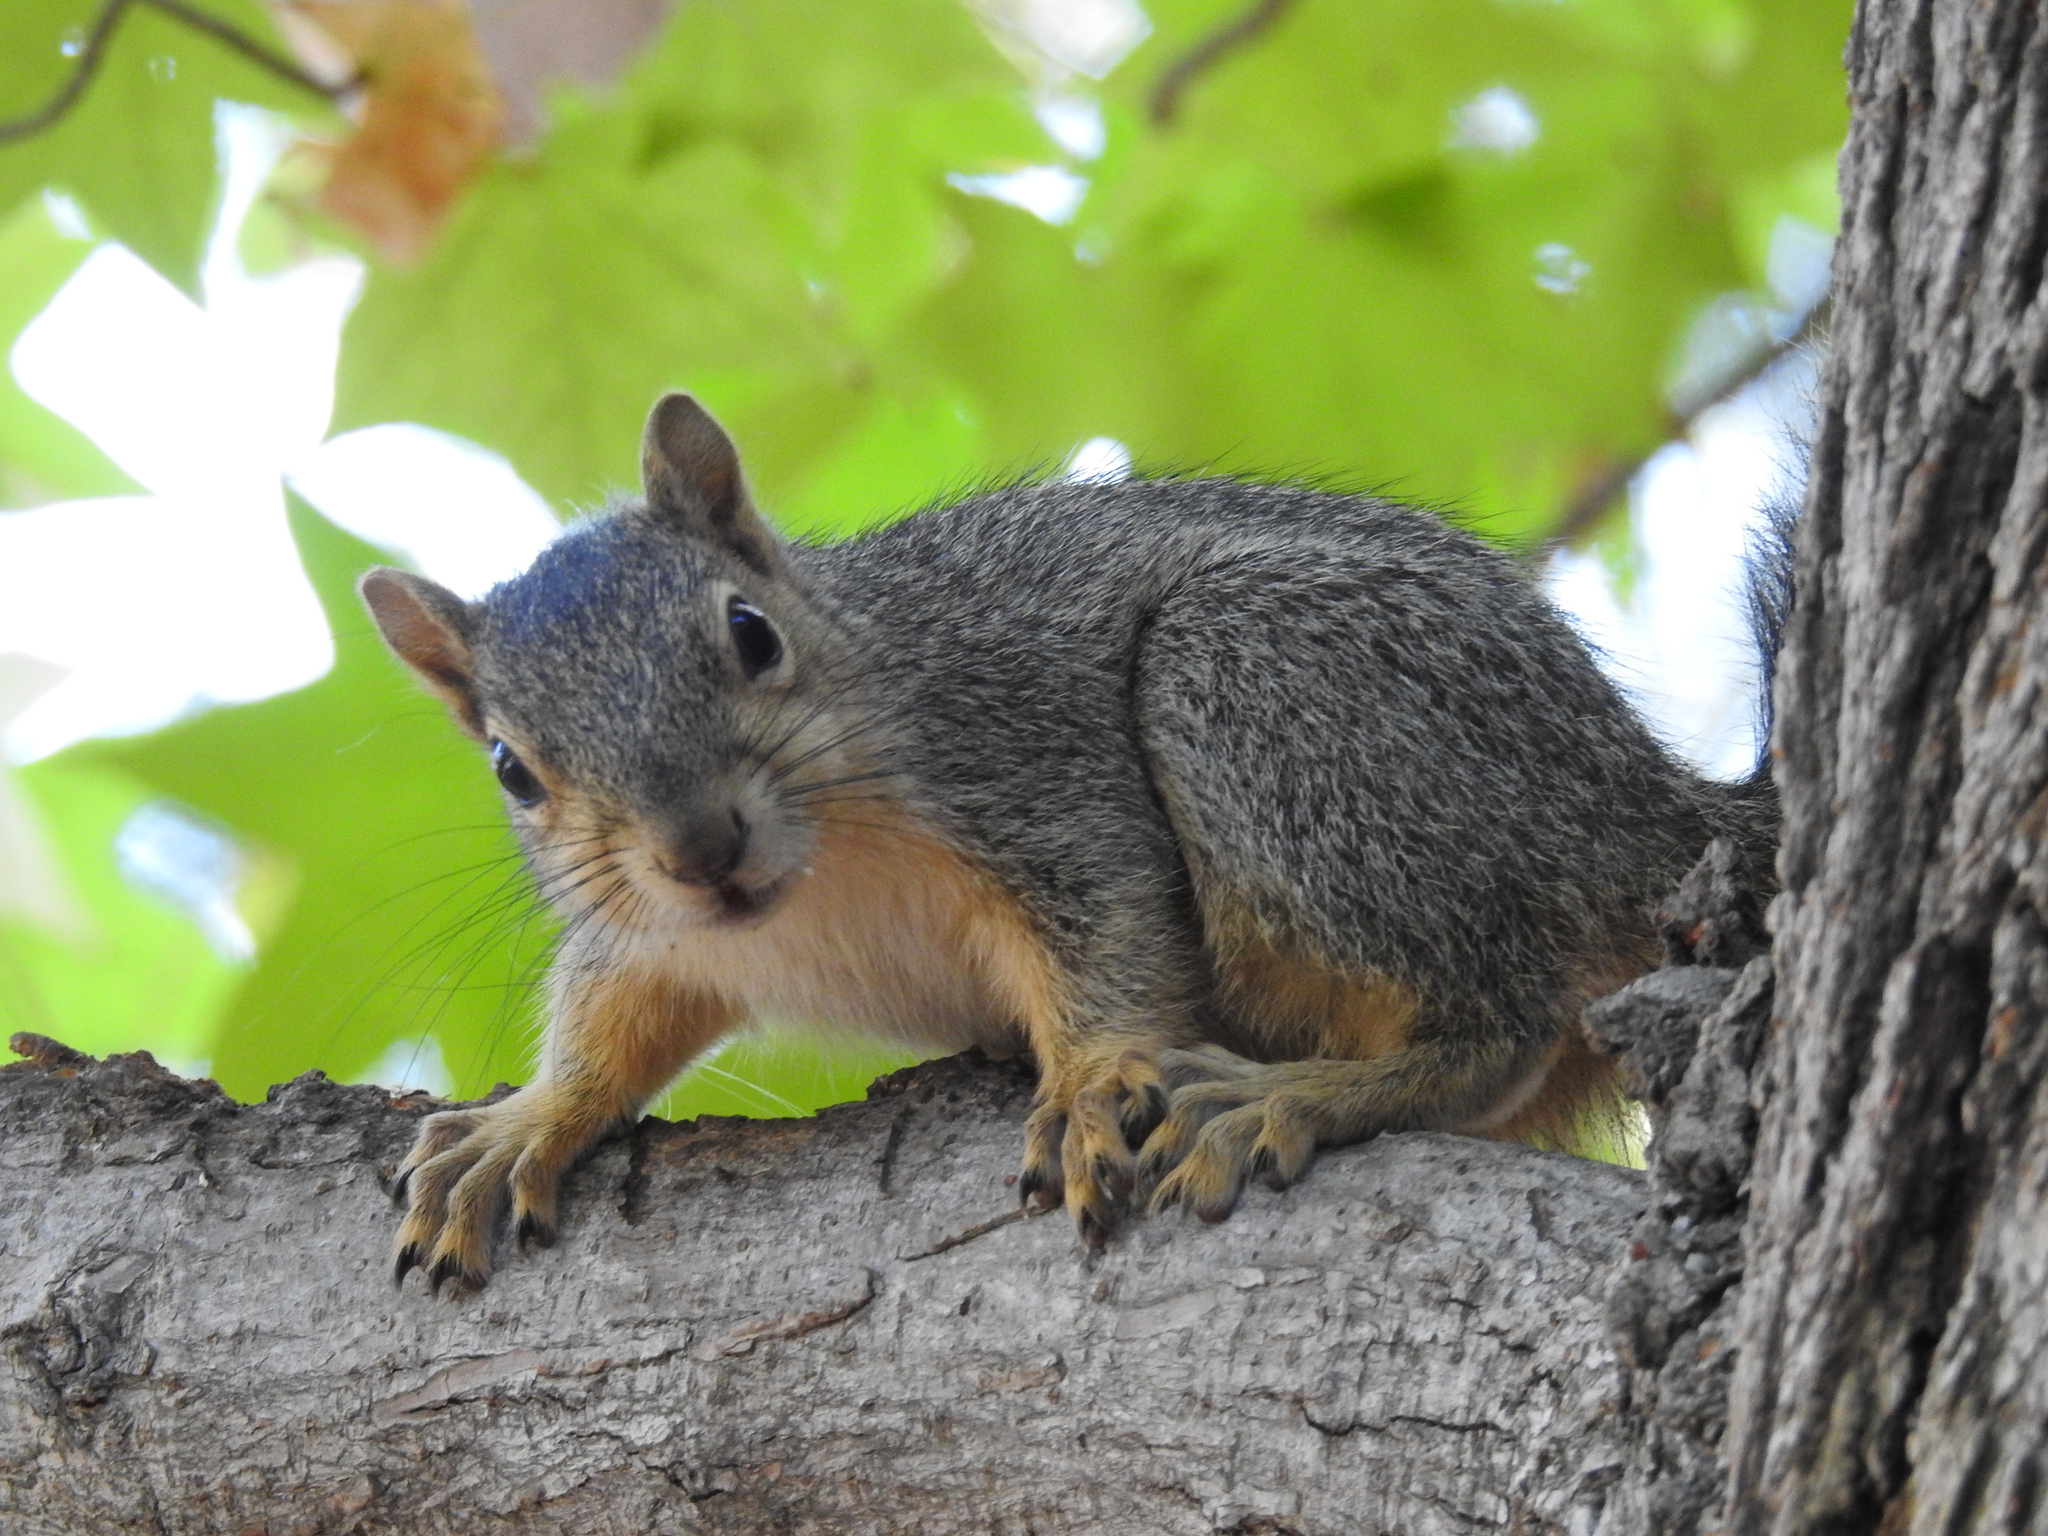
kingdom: Animalia
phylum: Chordata
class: Mammalia
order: Rodentia
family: Sciuridae
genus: Sciurus
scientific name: Sciurus niger
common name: Fox squirrel
